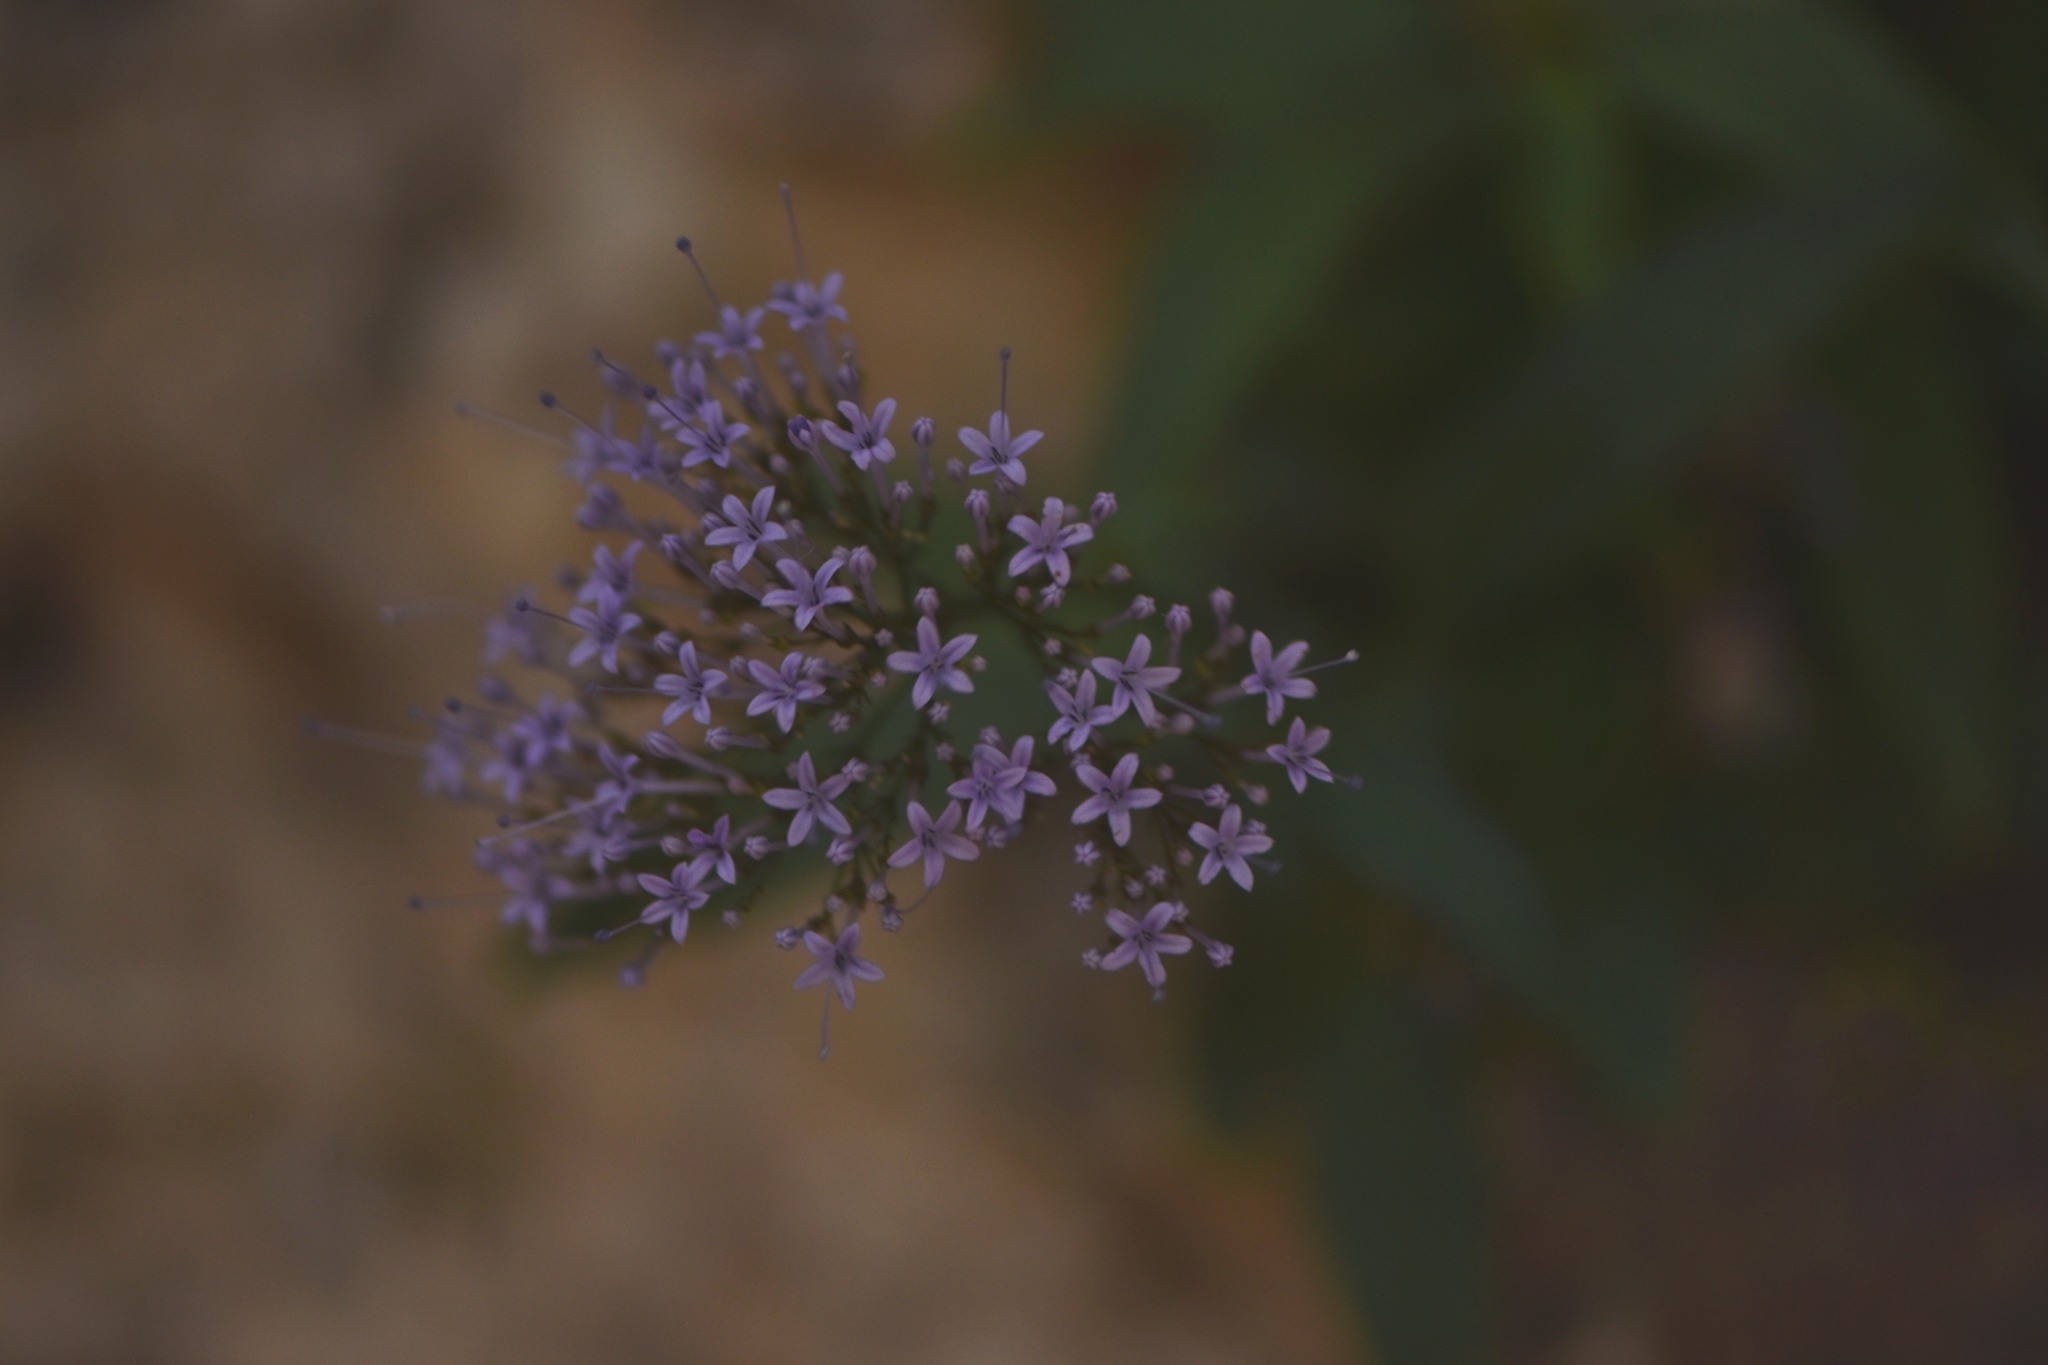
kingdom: Plantae
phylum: Tracheophyta
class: Magnoliopsida
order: Asterales
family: Campanulaceae
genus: Trachelium
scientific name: Trachelium caeruleum
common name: Throatwort
